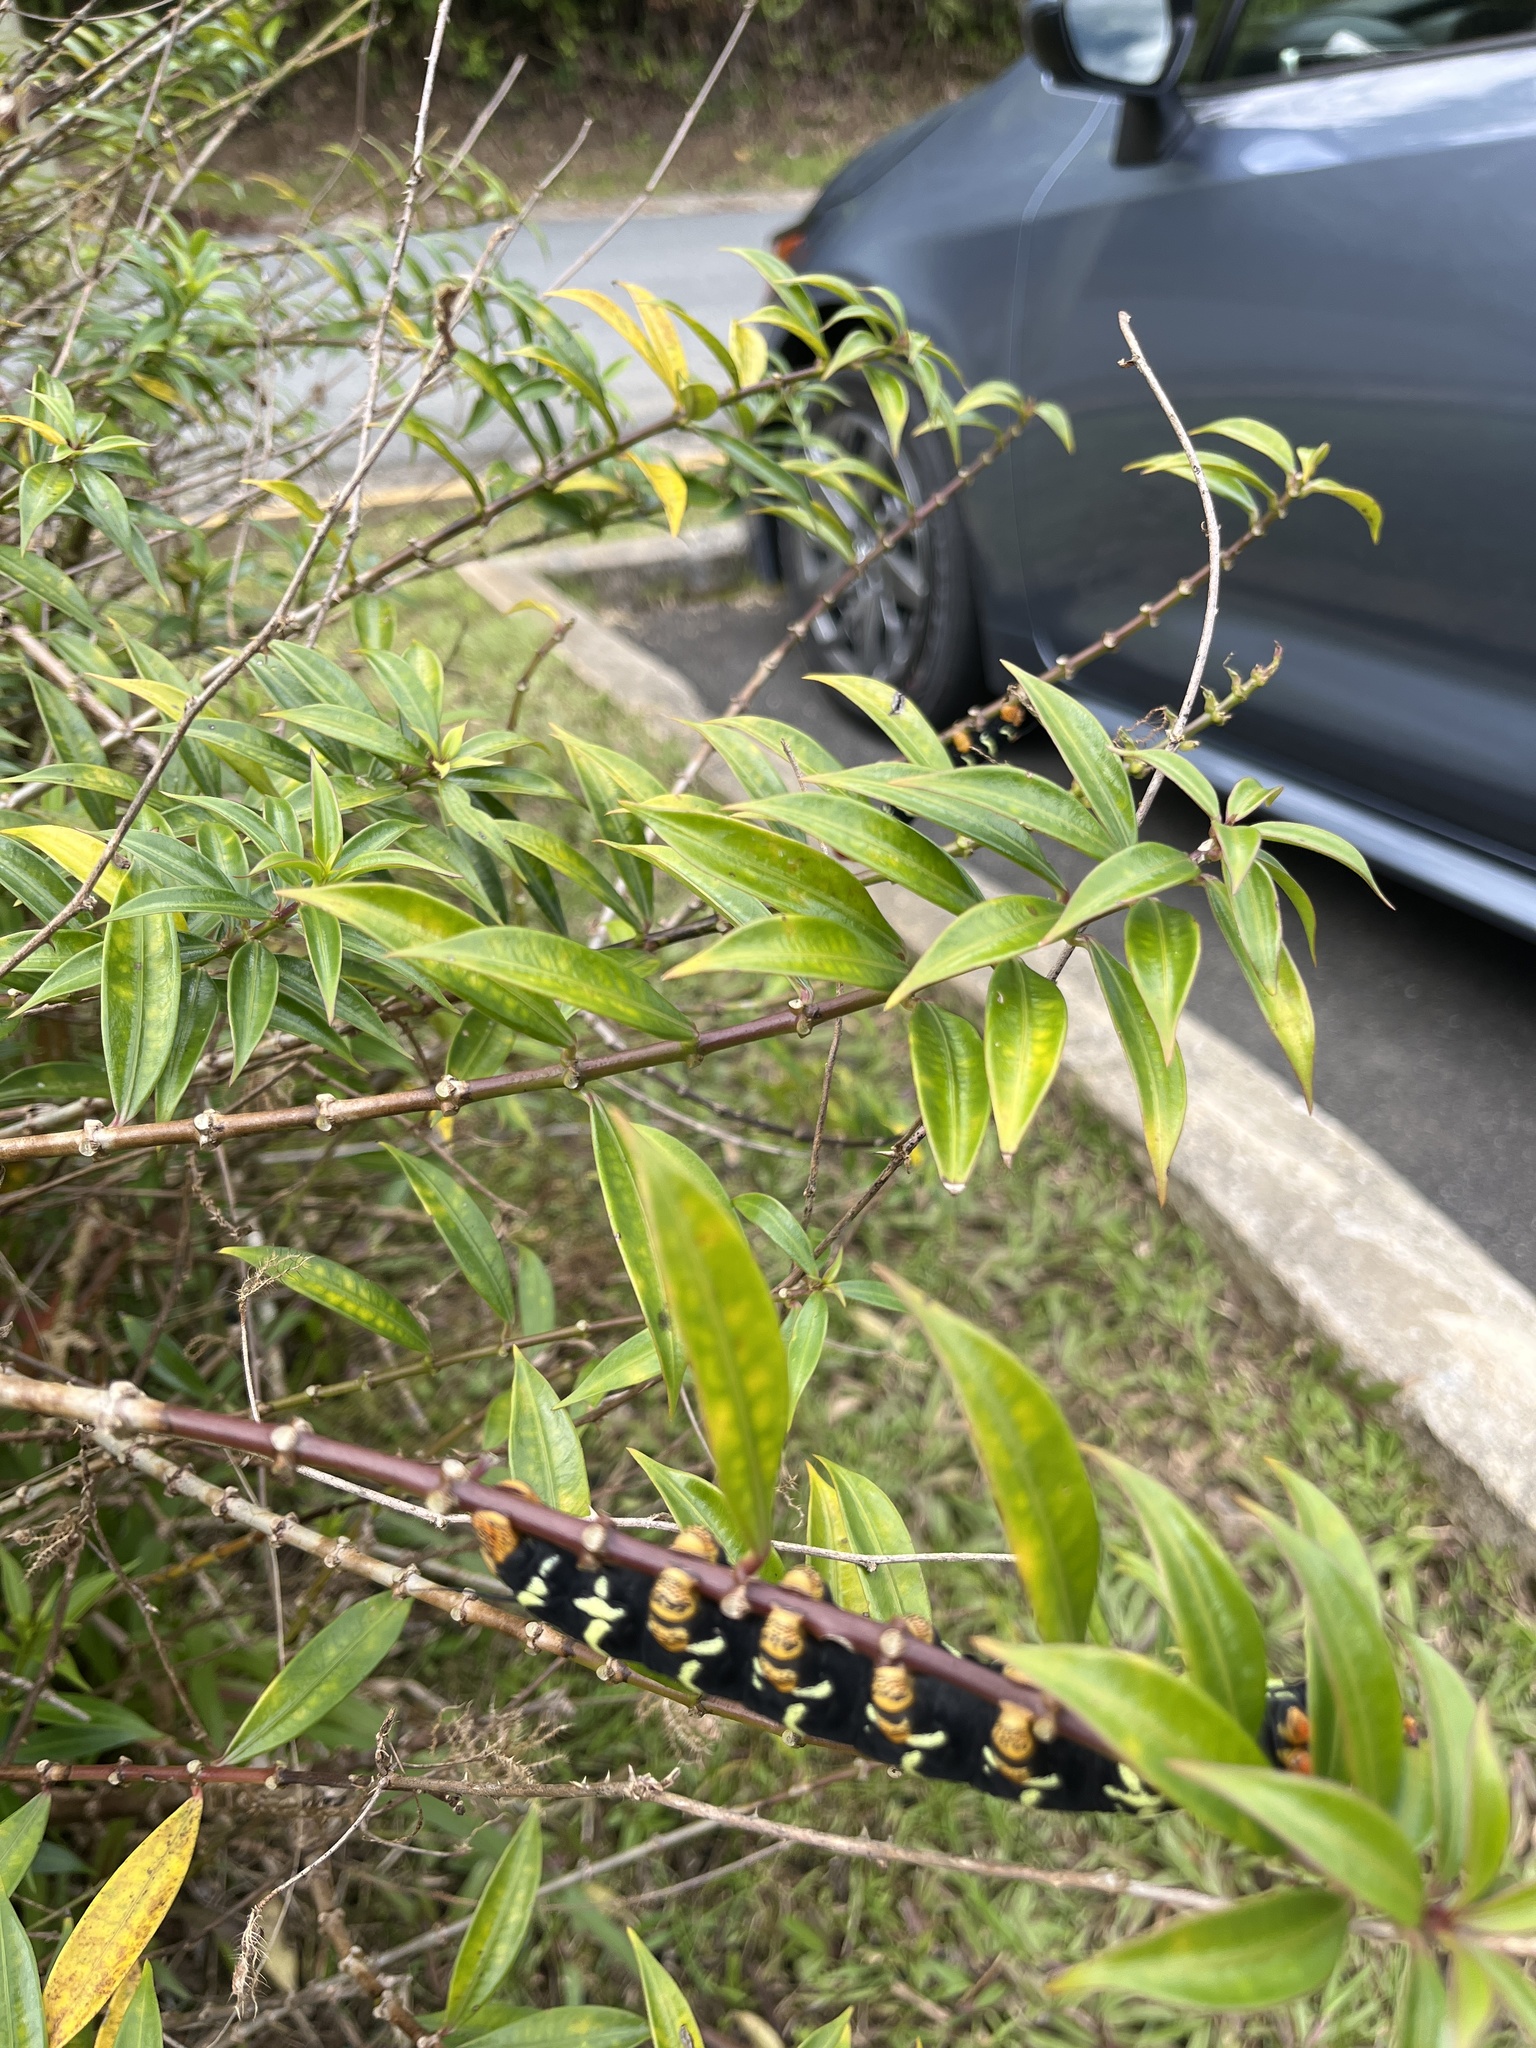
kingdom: Animalia
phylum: Arthropoda
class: Insecta
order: Lepidoptera
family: Sphingidae
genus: Pseudosphinx
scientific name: Pseudosphinx tetrio
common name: Tetrio sphinx
